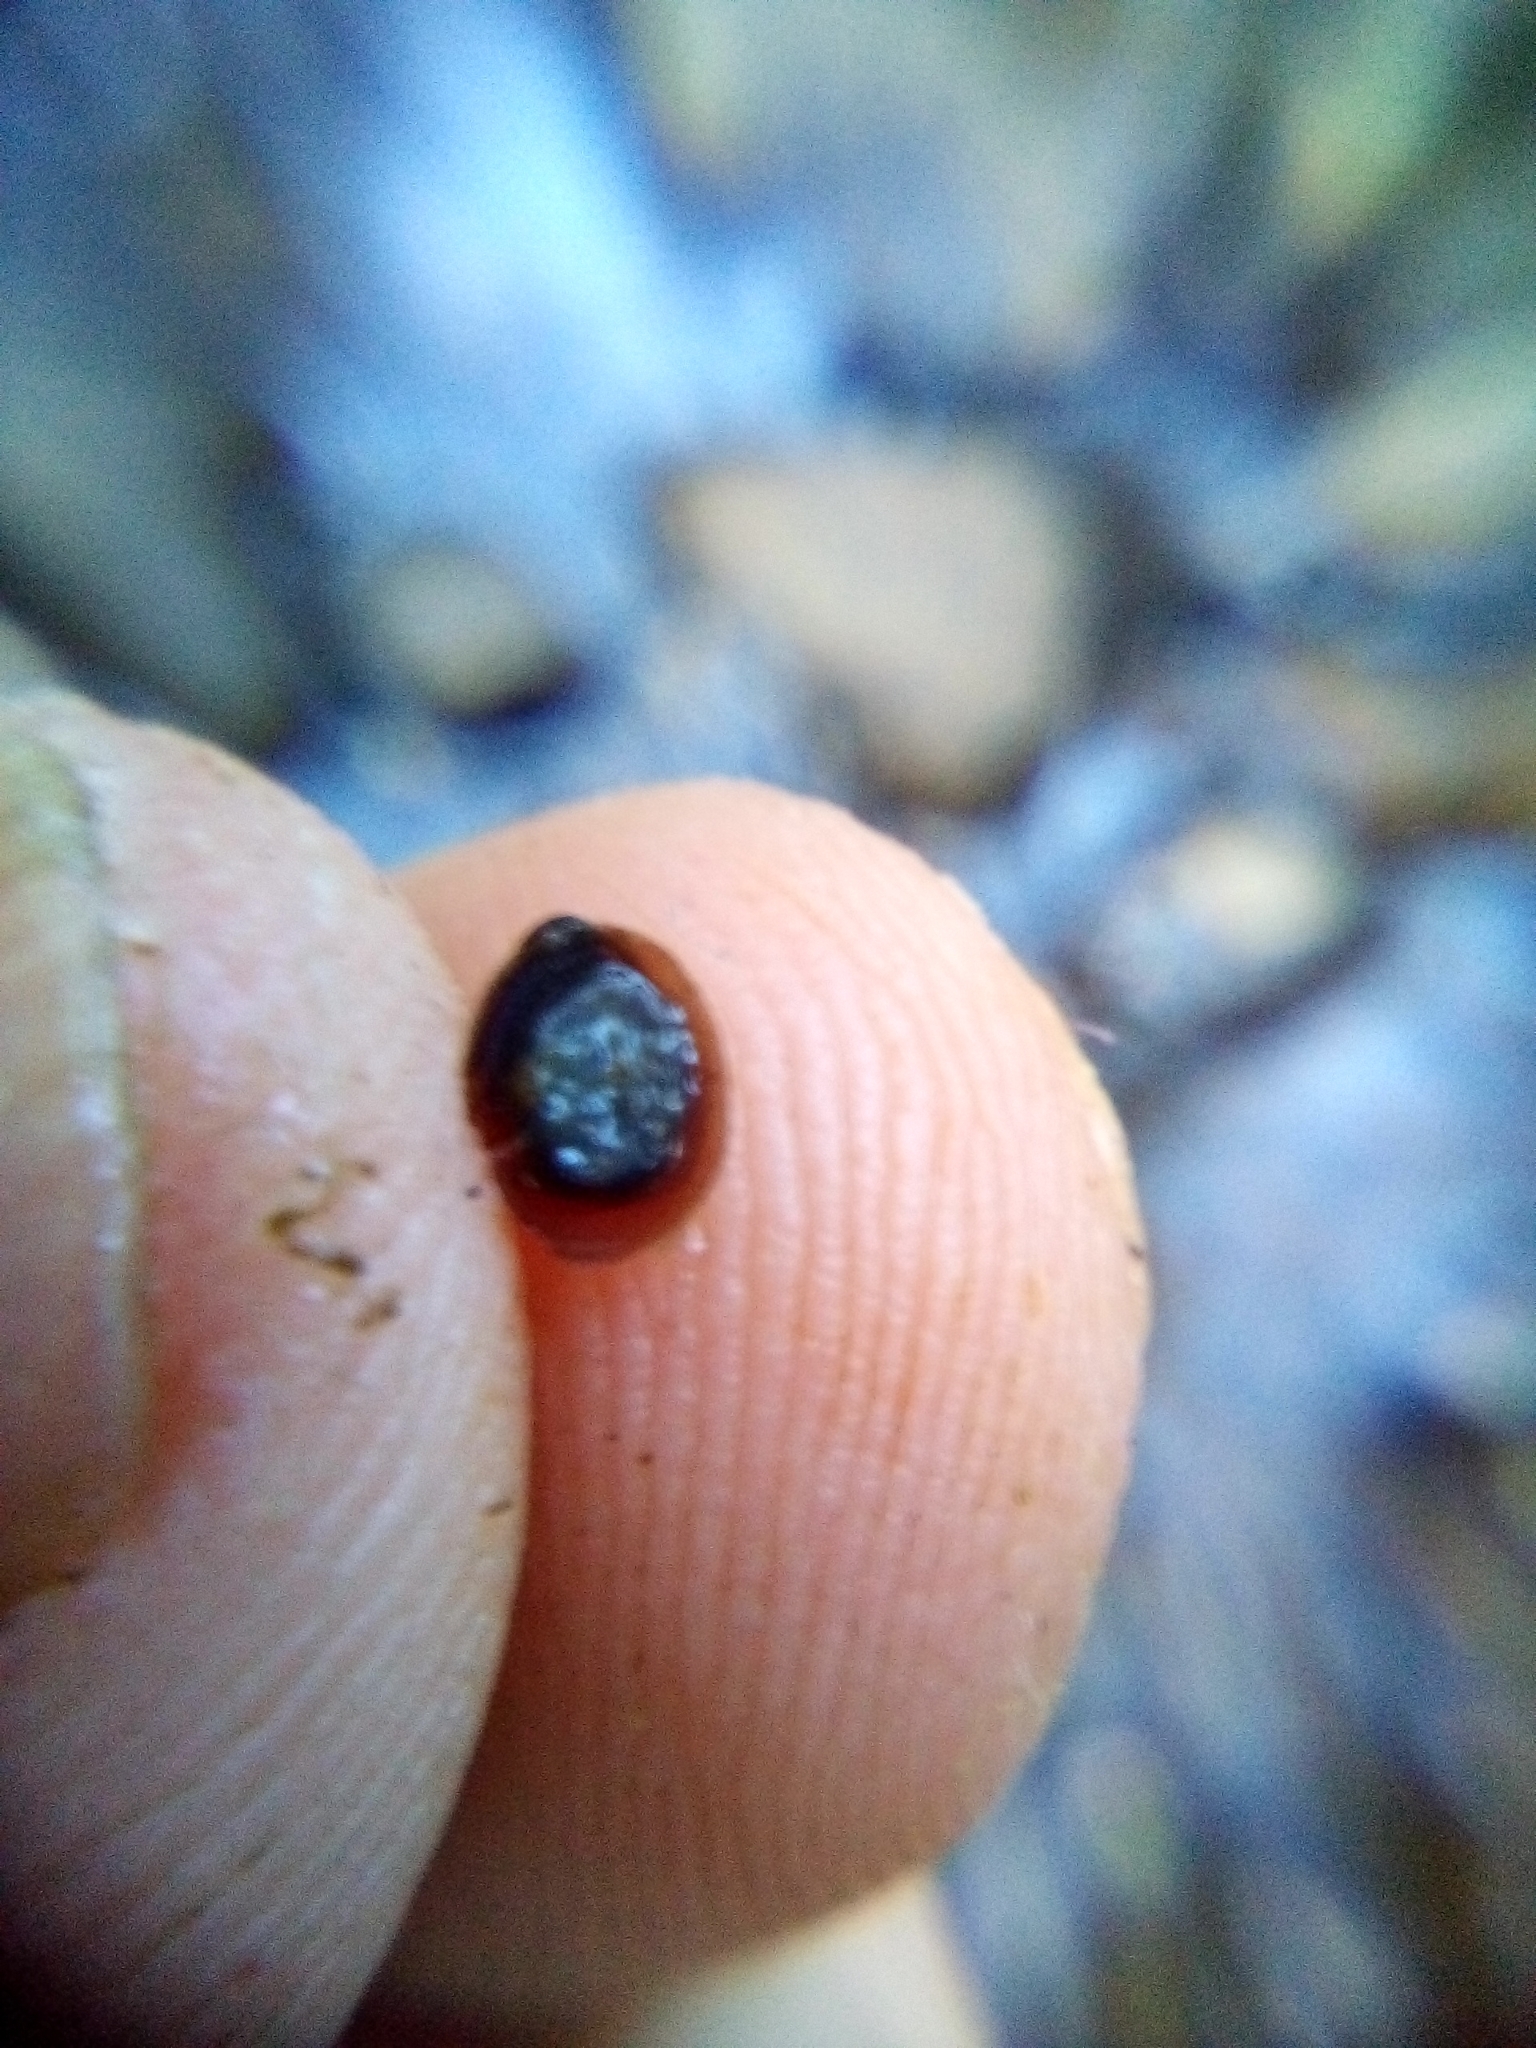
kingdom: Animalia
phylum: Mollusca
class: Gastropoda
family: Latiidae
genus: Latia
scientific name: Latia neritoides
